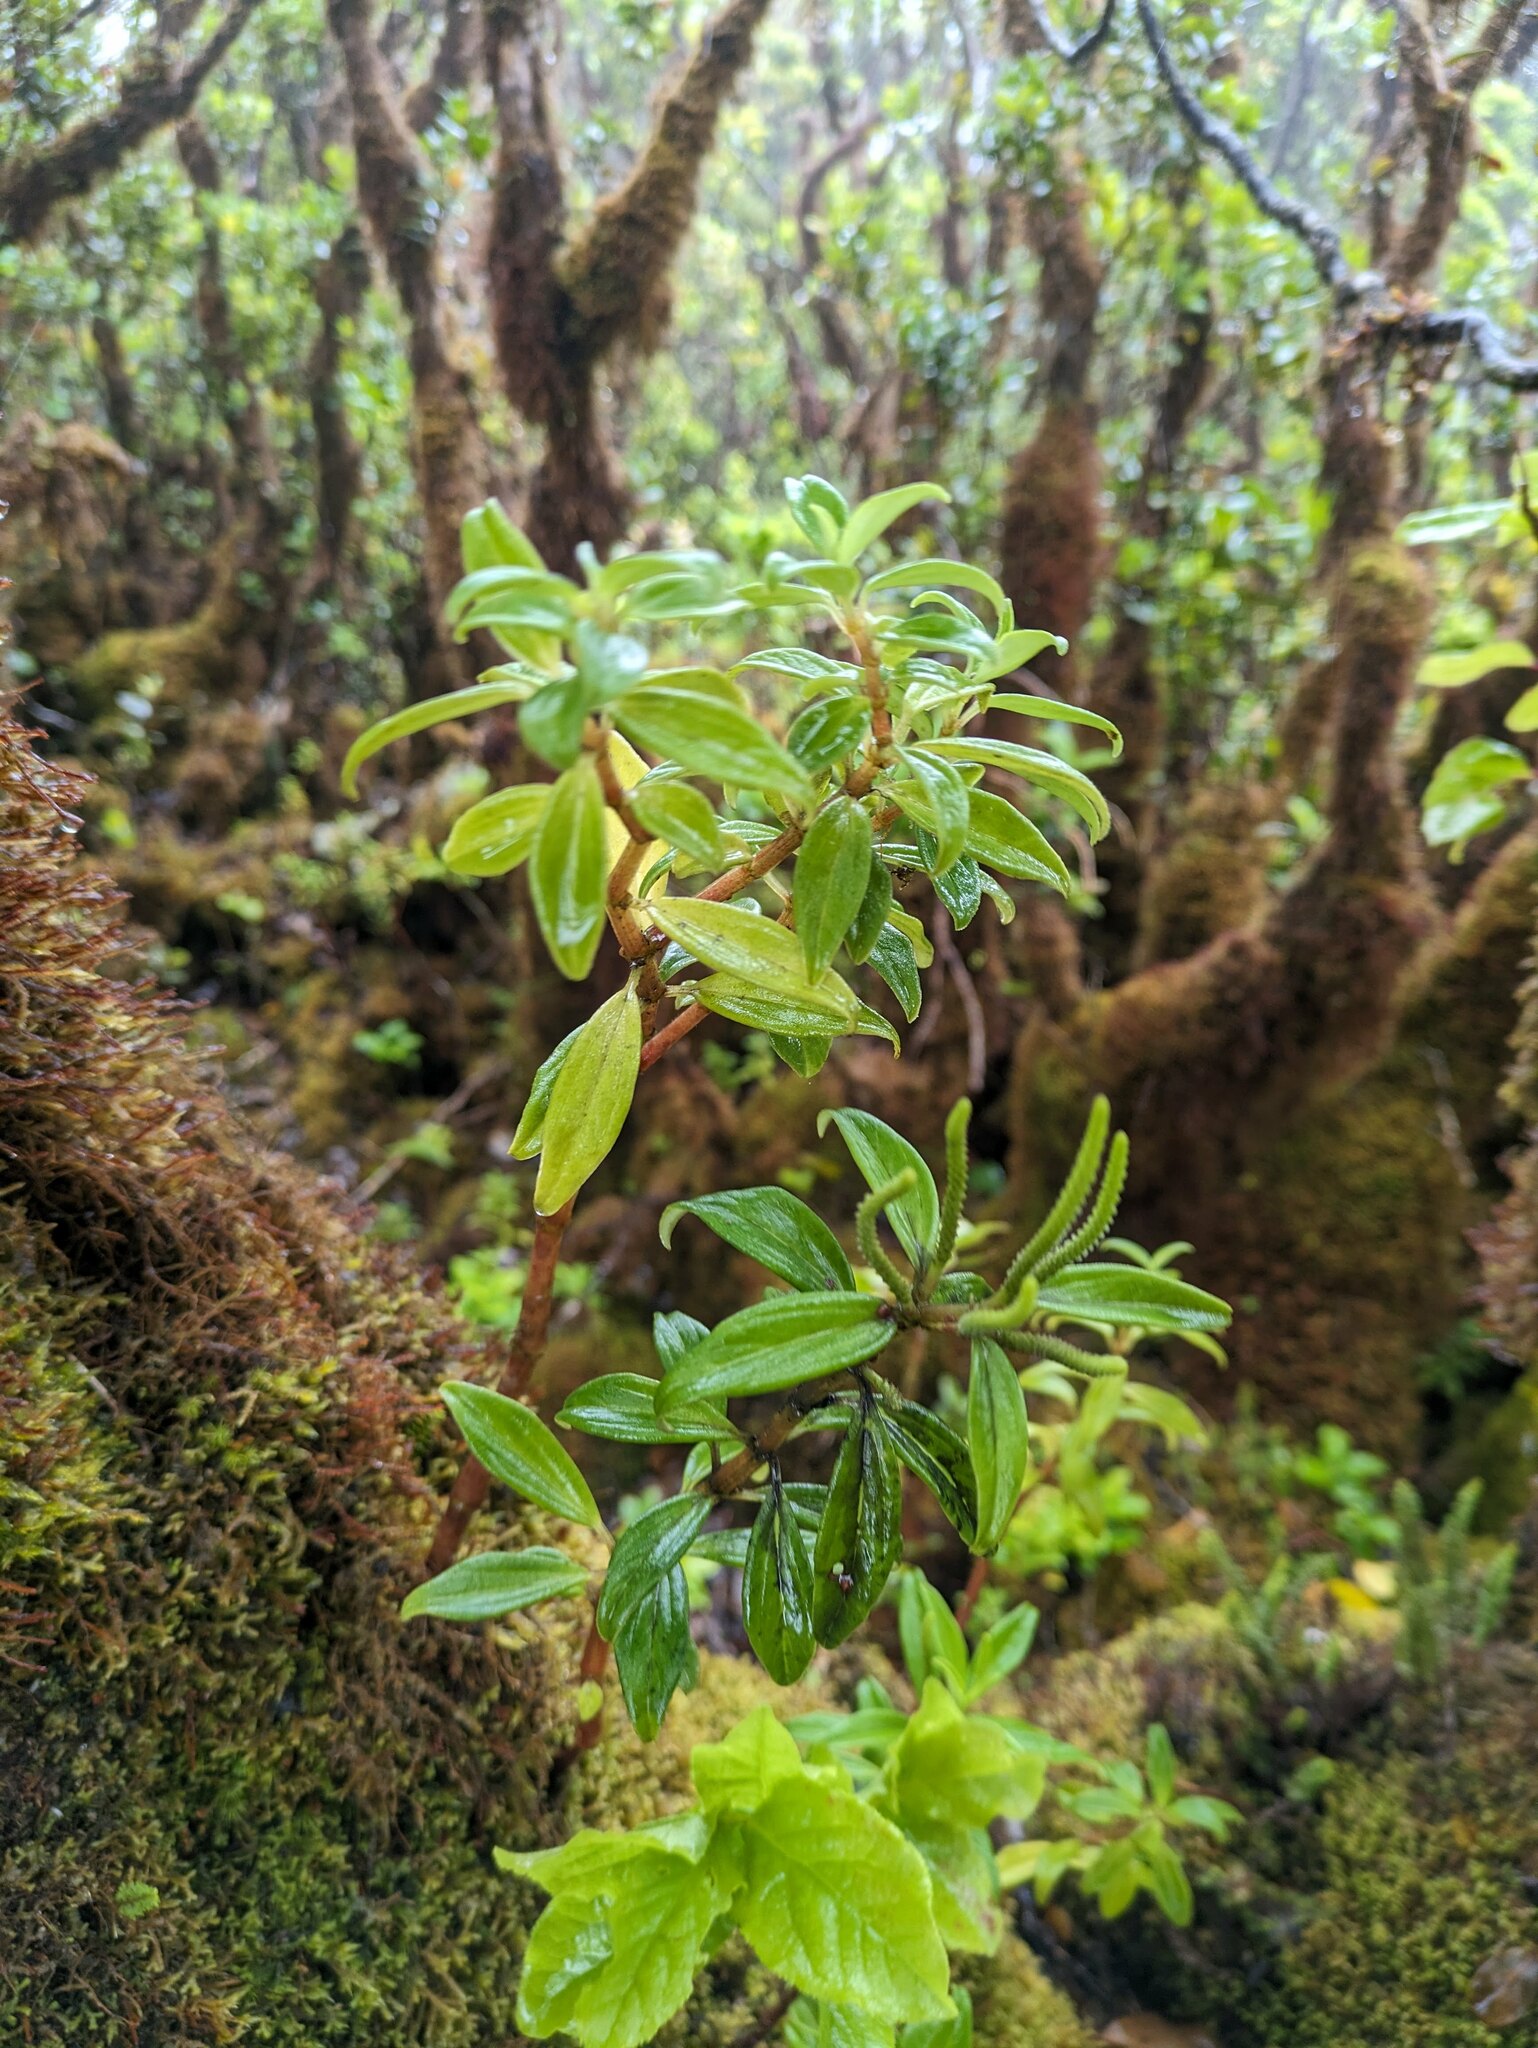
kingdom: Plantae
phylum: Tracheophyta
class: Magnoliopsida
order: Piperales
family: Piperaceae
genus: Peperomia
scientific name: Peperomia hesperomannii
